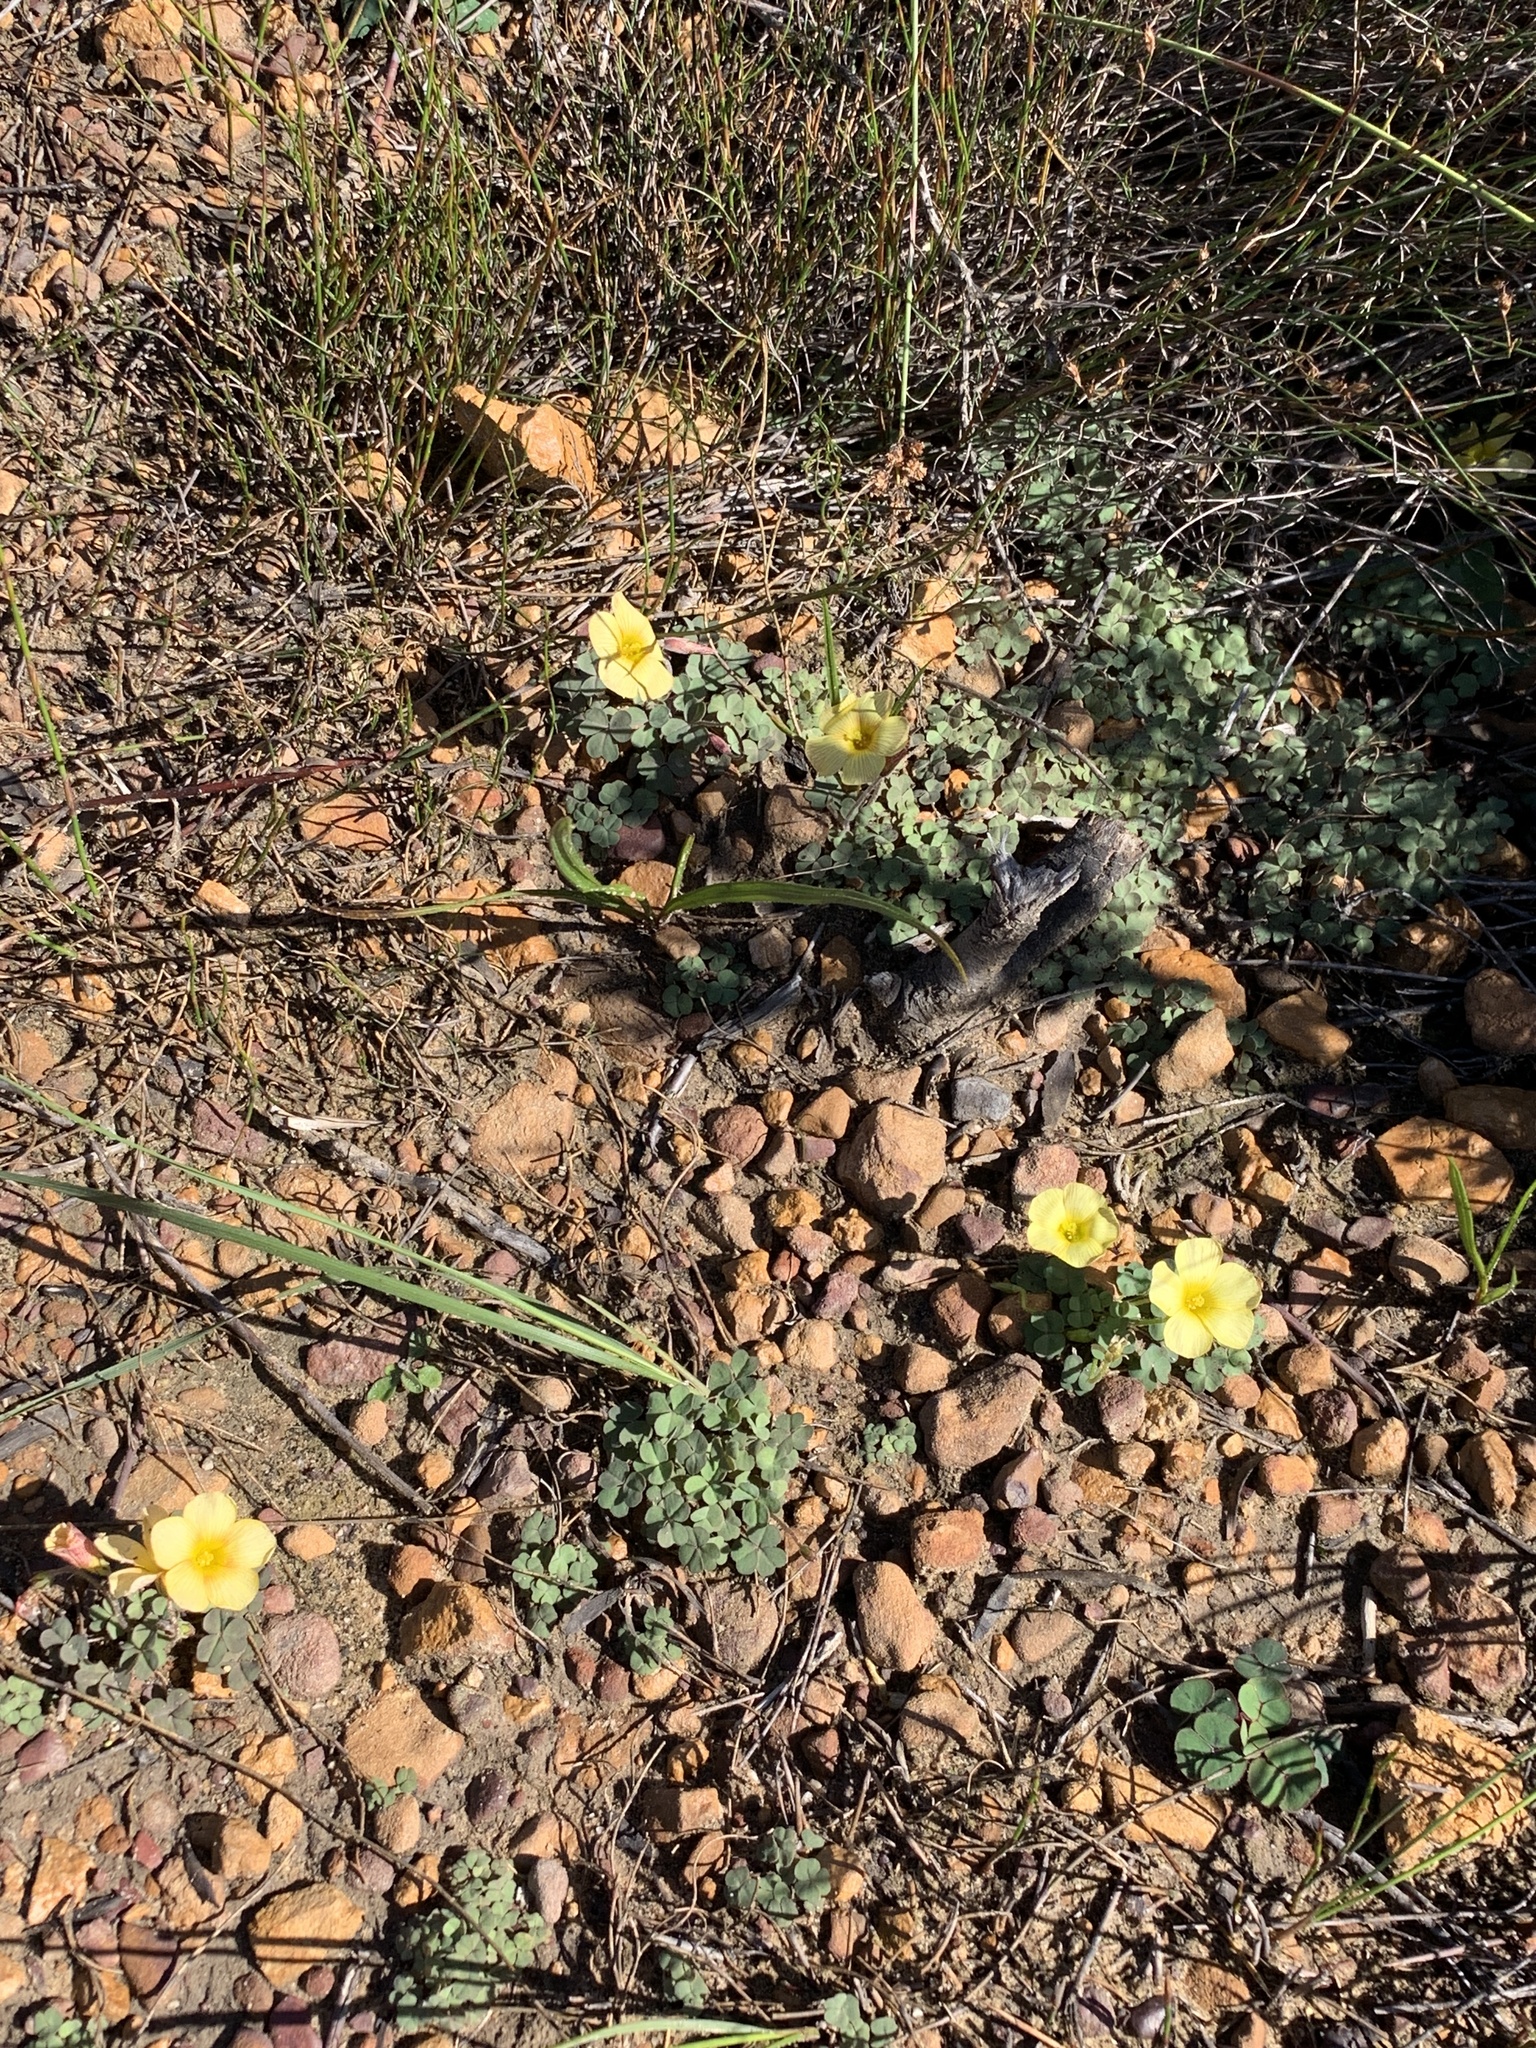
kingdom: Plantae
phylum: Tracheophyta
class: Magnoliopsida
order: Oxalidales
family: Oxalidaceae
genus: Oxalis
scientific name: Oxalis obtusa
